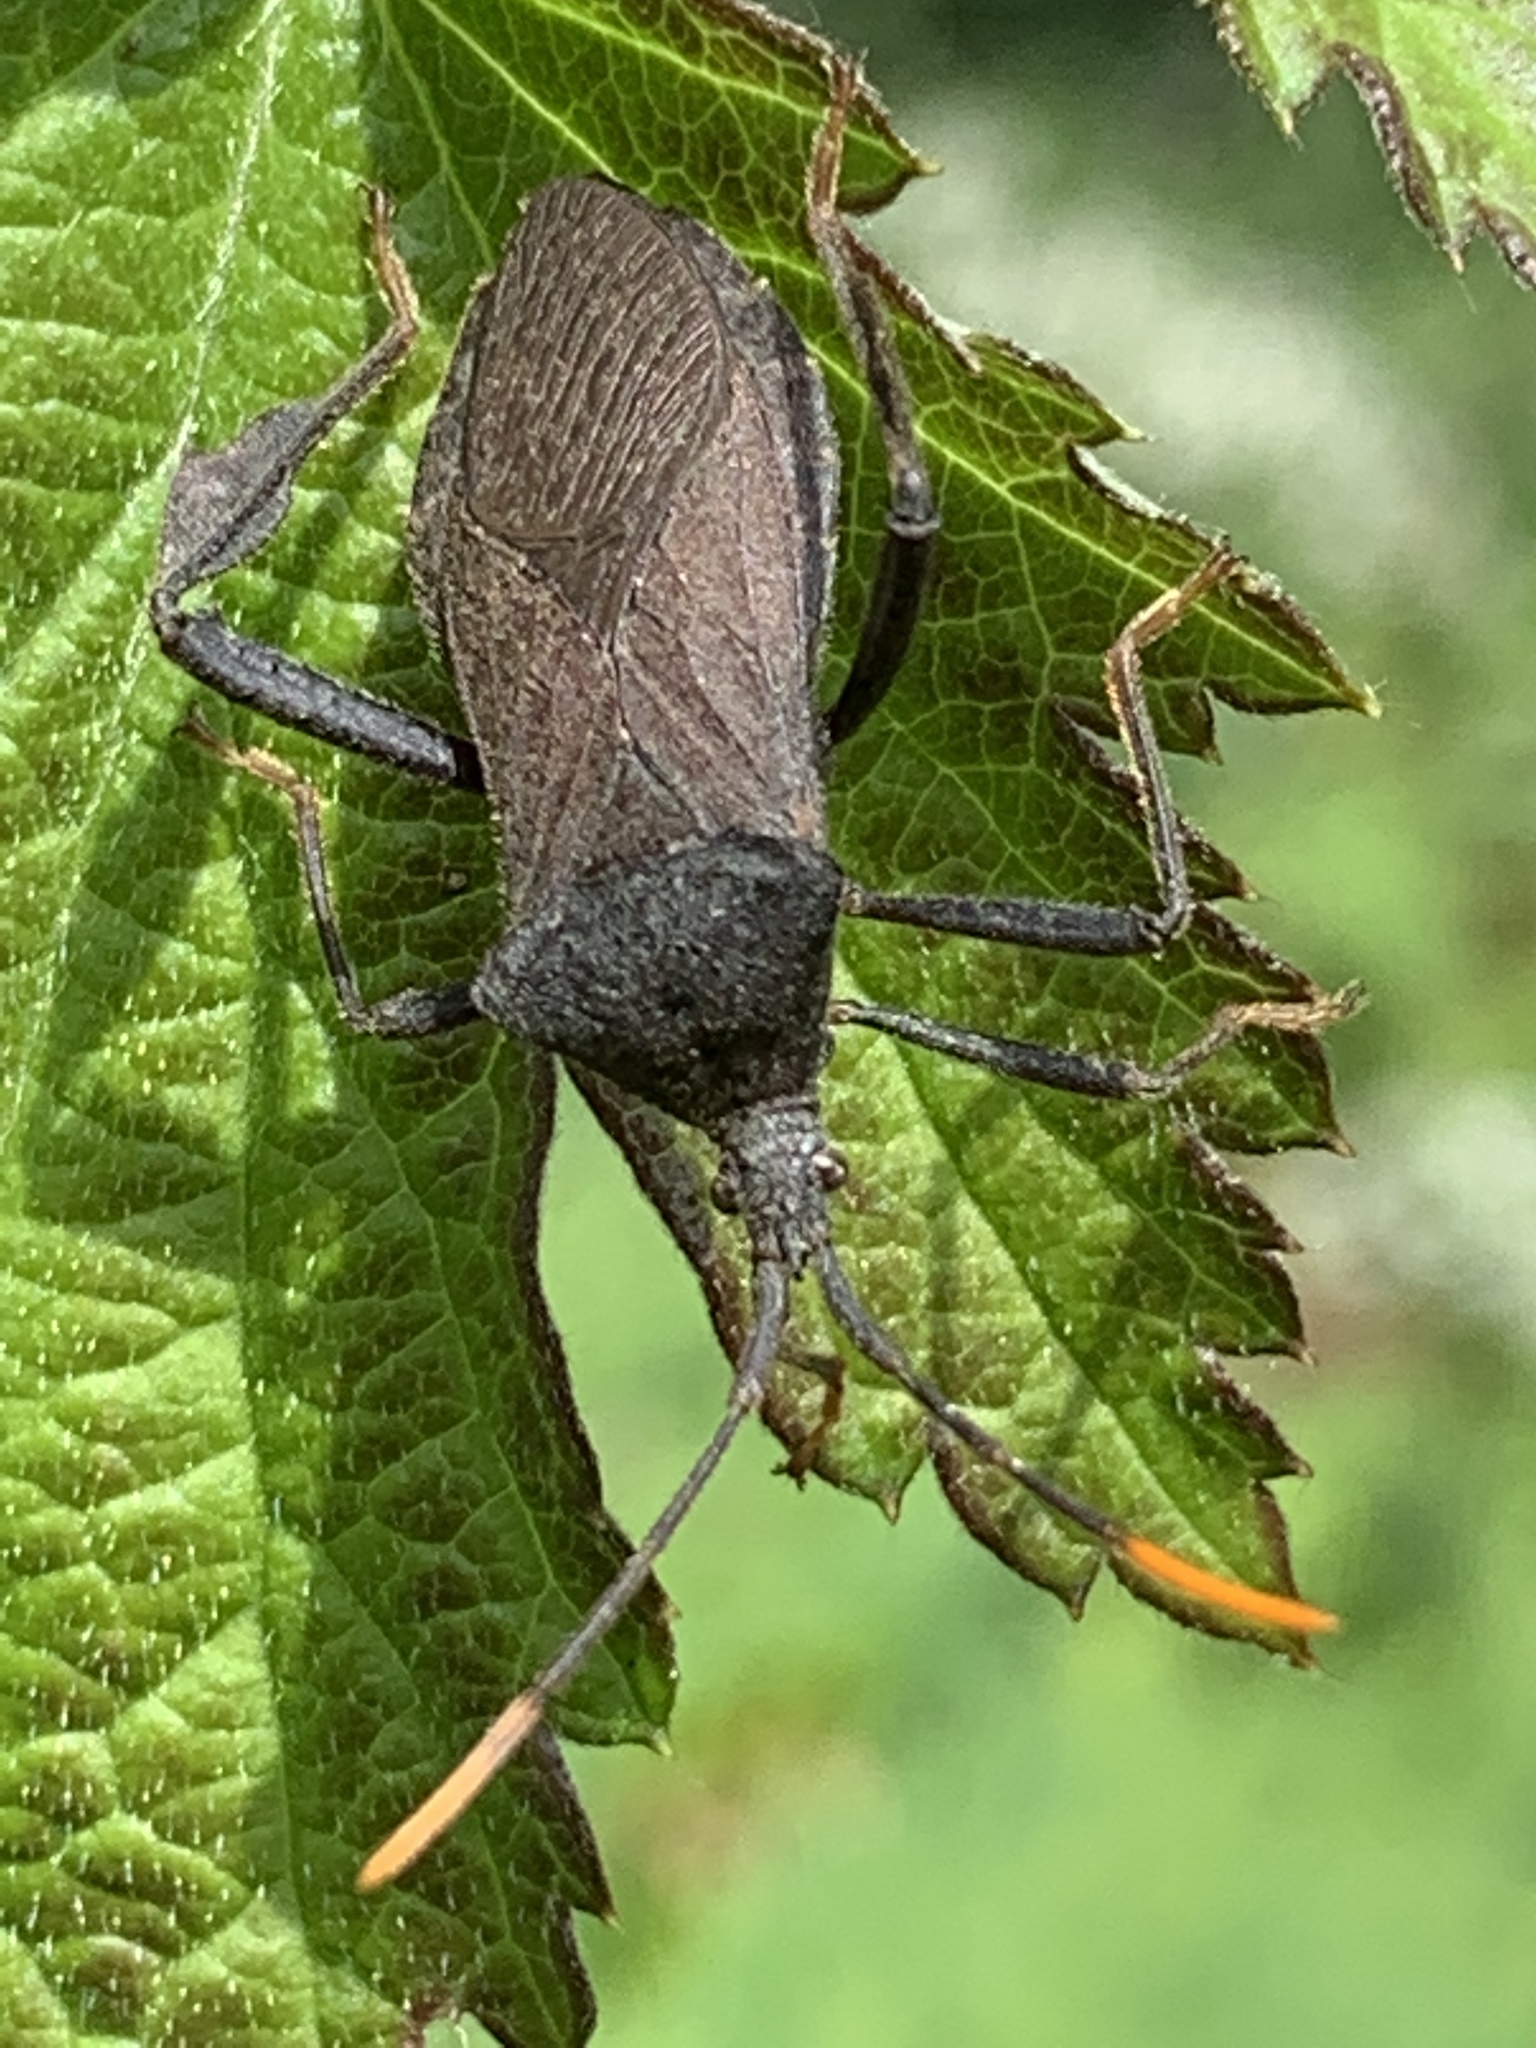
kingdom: Animalia
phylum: Arthropoda
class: Insecta
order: Hemiptera
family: Coreidae
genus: Acanthocephala
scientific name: Acanthocephala terminalis
